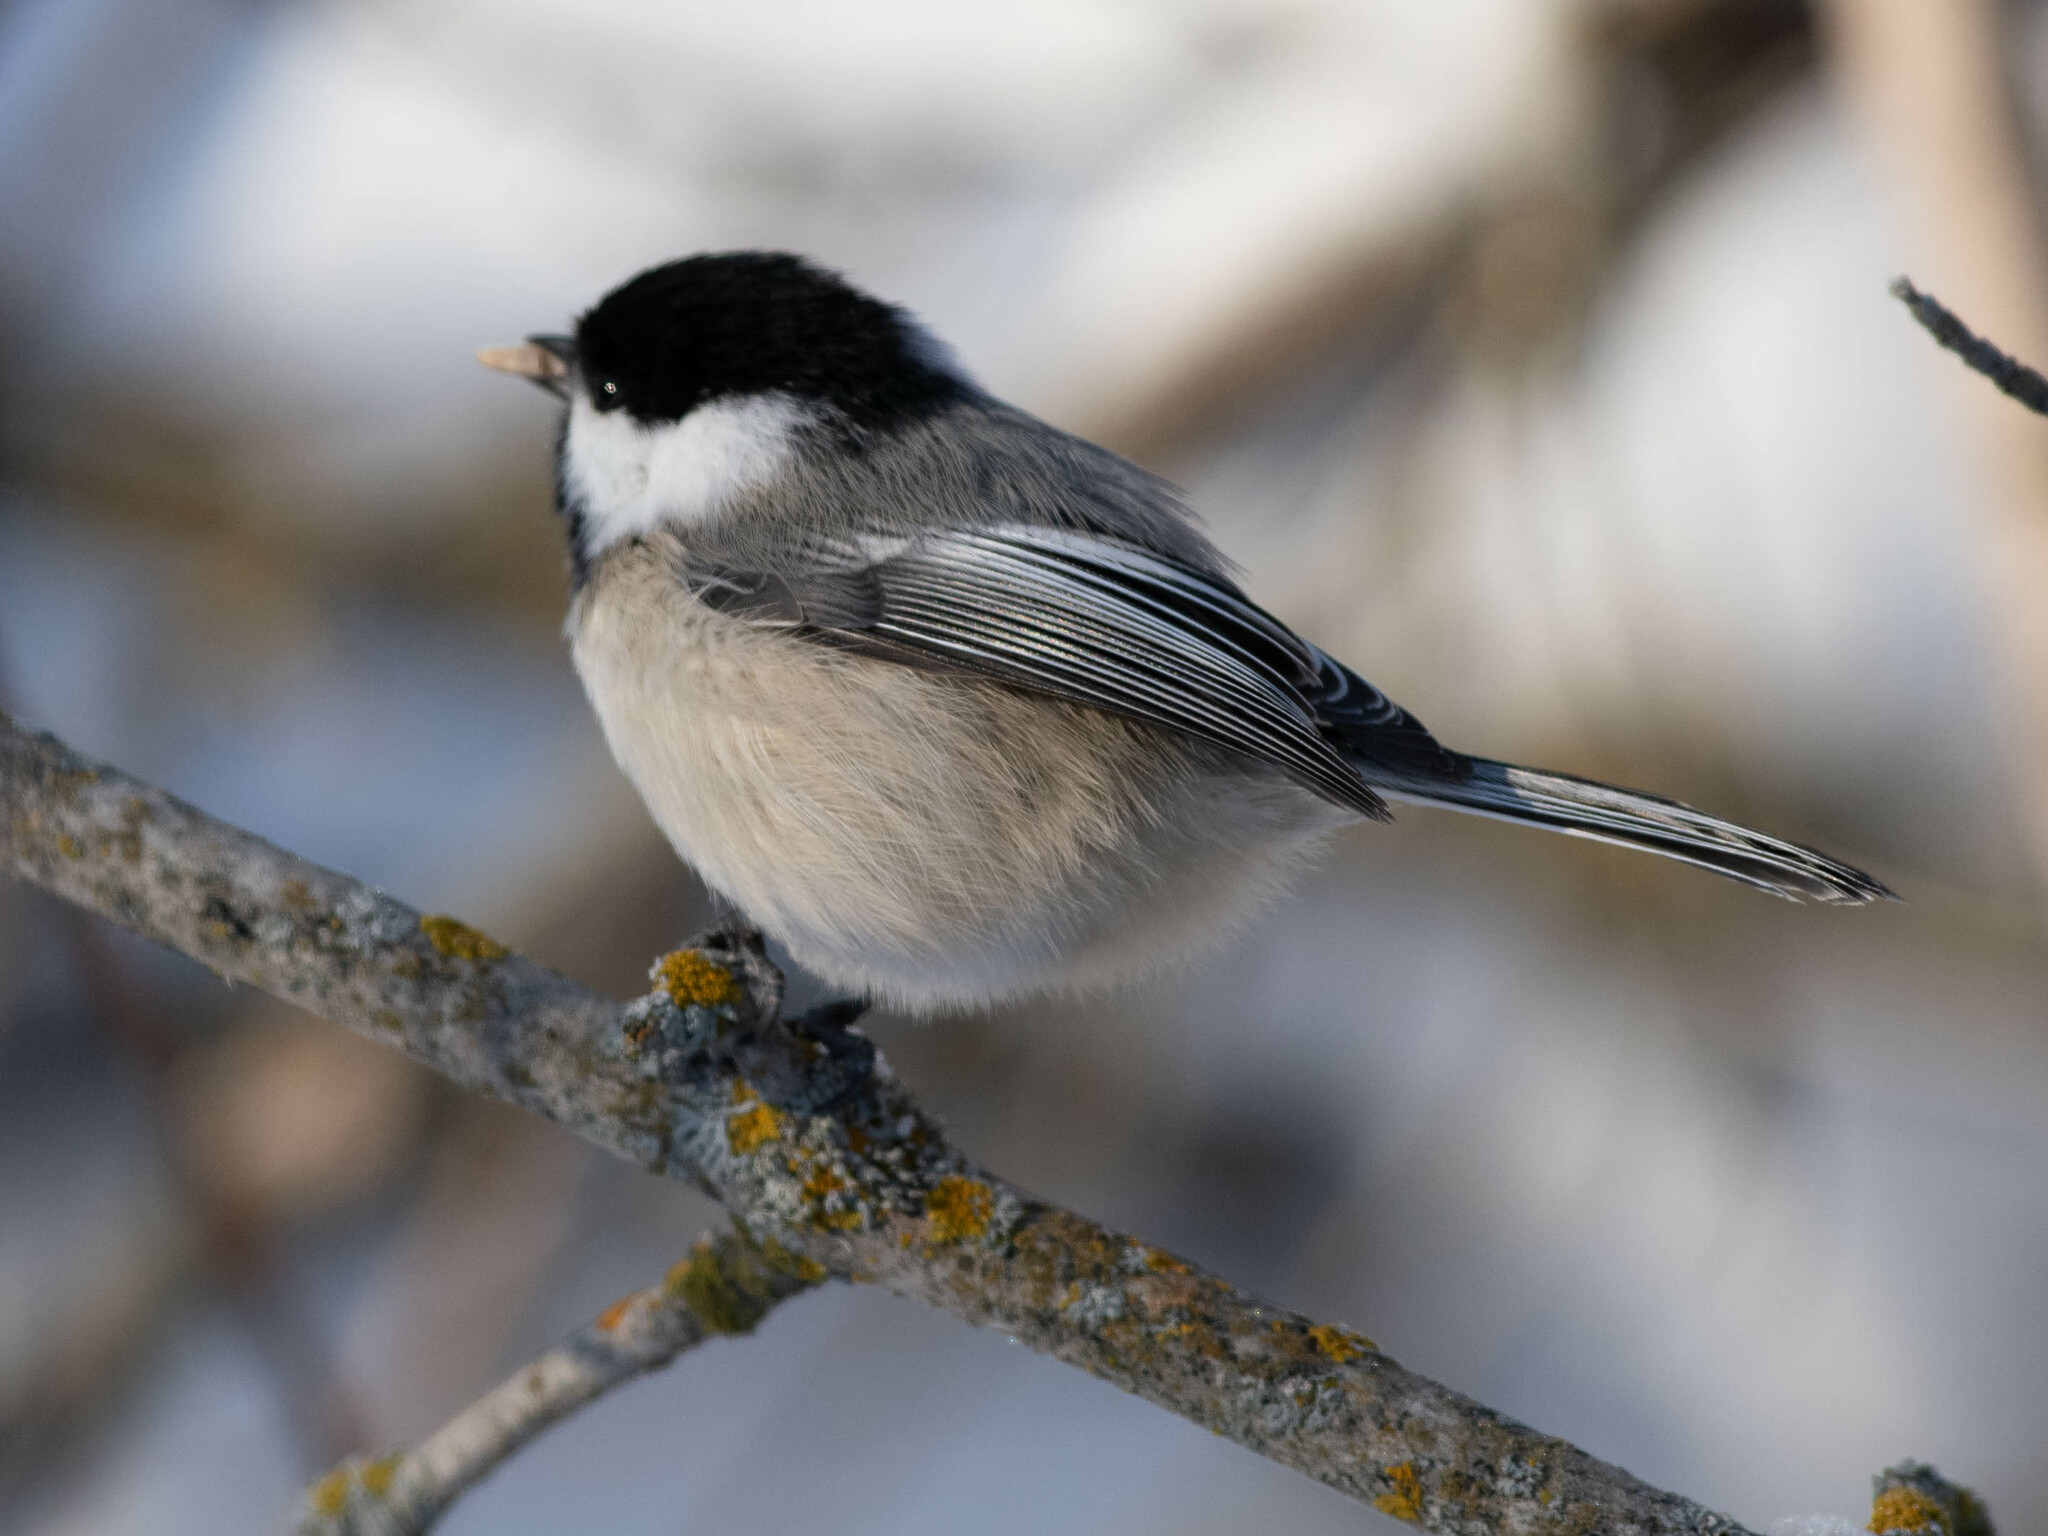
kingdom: Animalia
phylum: Chordata
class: Aves
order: Passeriformes
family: Paridae
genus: Poecile
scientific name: Poecile atricapillus
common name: Black-capped chickadee
